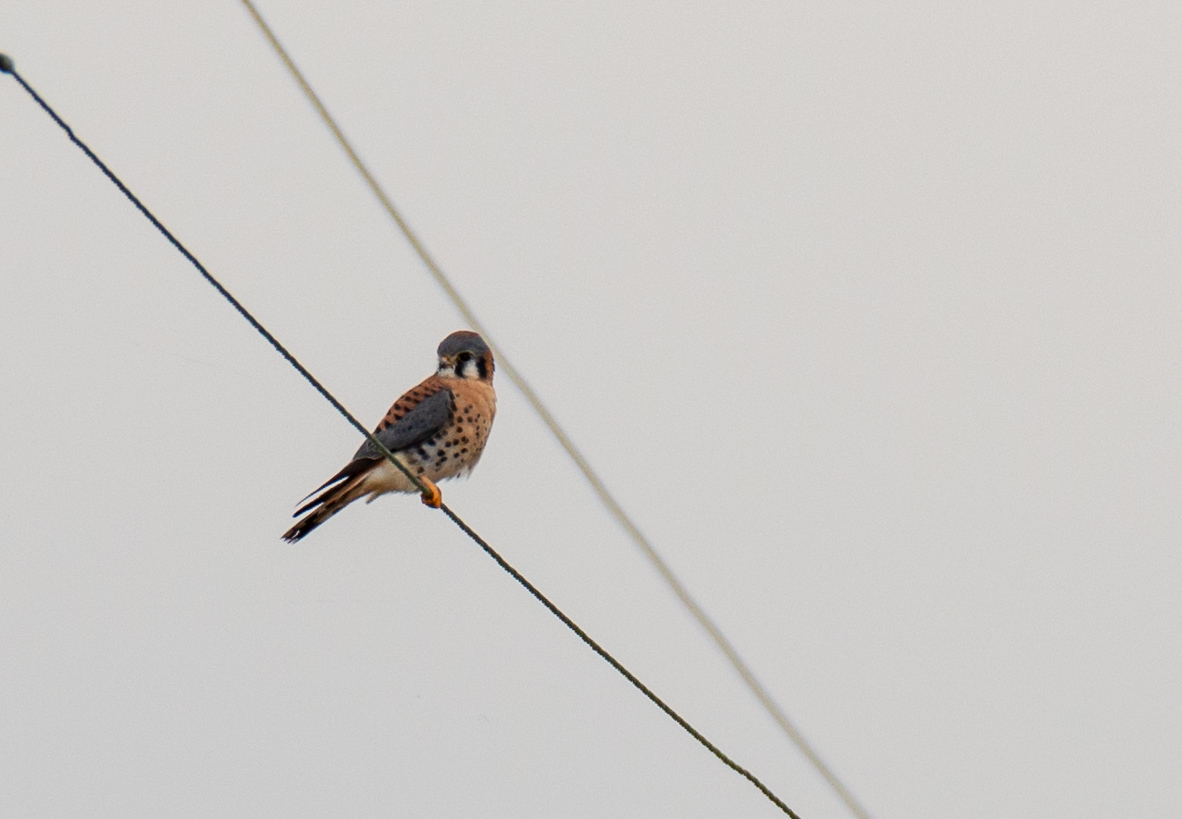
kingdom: Animalia
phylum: Chordata
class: Aves
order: Falconiformes
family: Falconidae
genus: Falco
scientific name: Falco sparverius
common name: American kestrel
